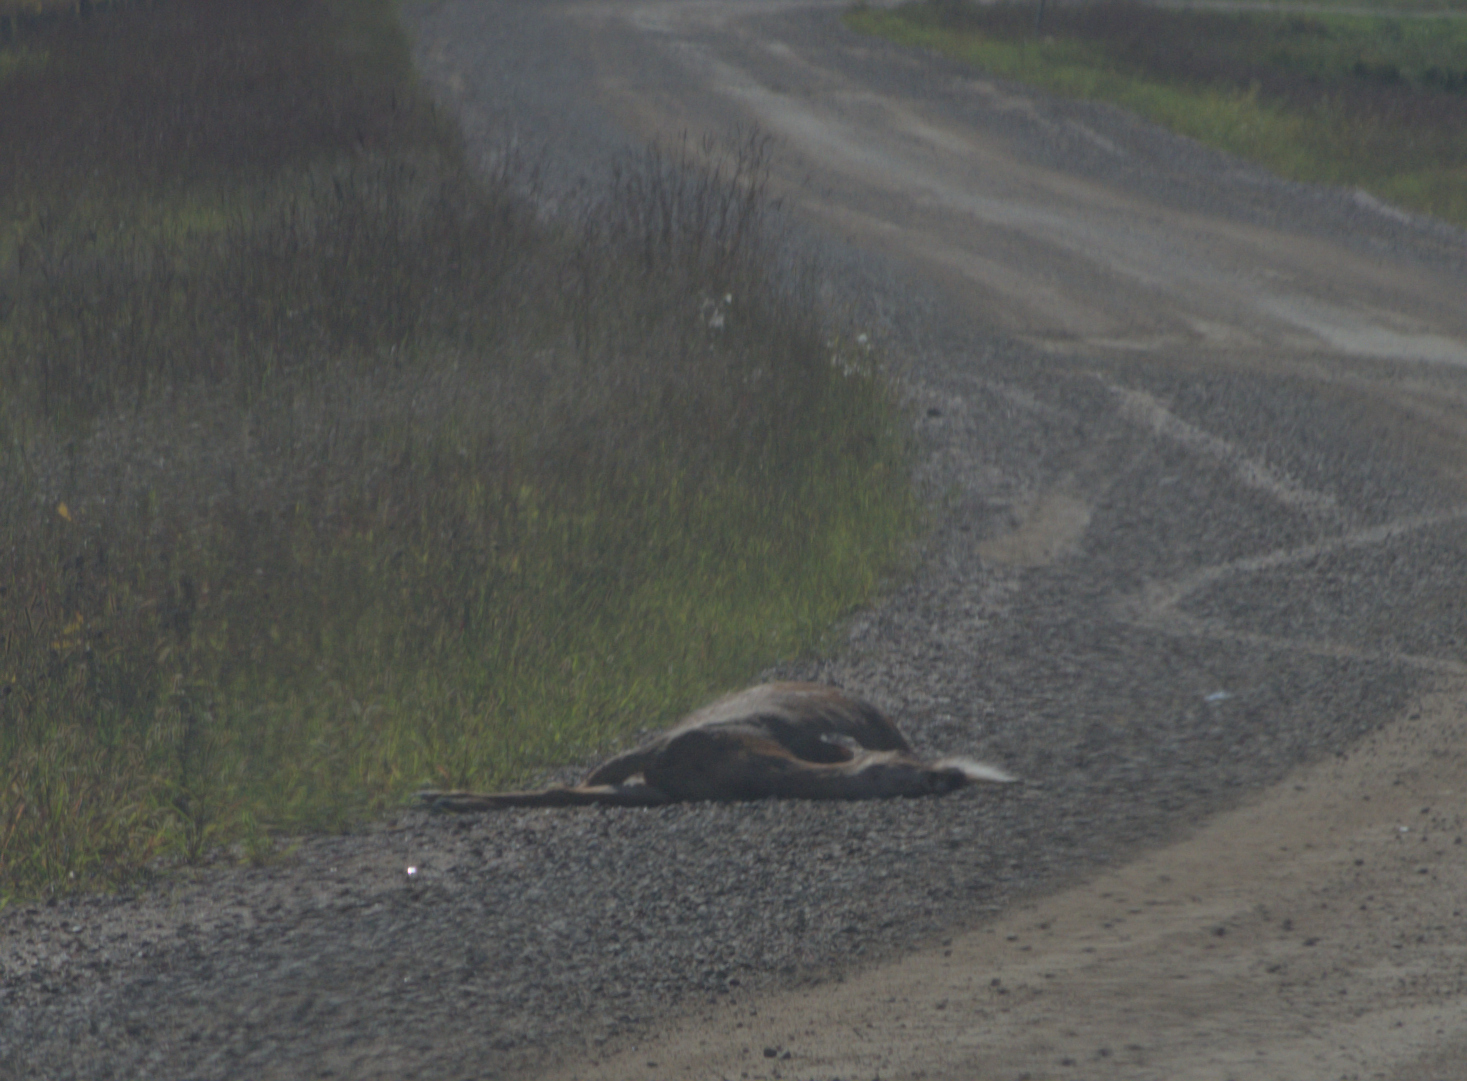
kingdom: Animalia
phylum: Chordata
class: Mammalia
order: Artiodactyla
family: Cervidae
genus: Odocoileus
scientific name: Odocoileus virginianus
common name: White-tailed deer
